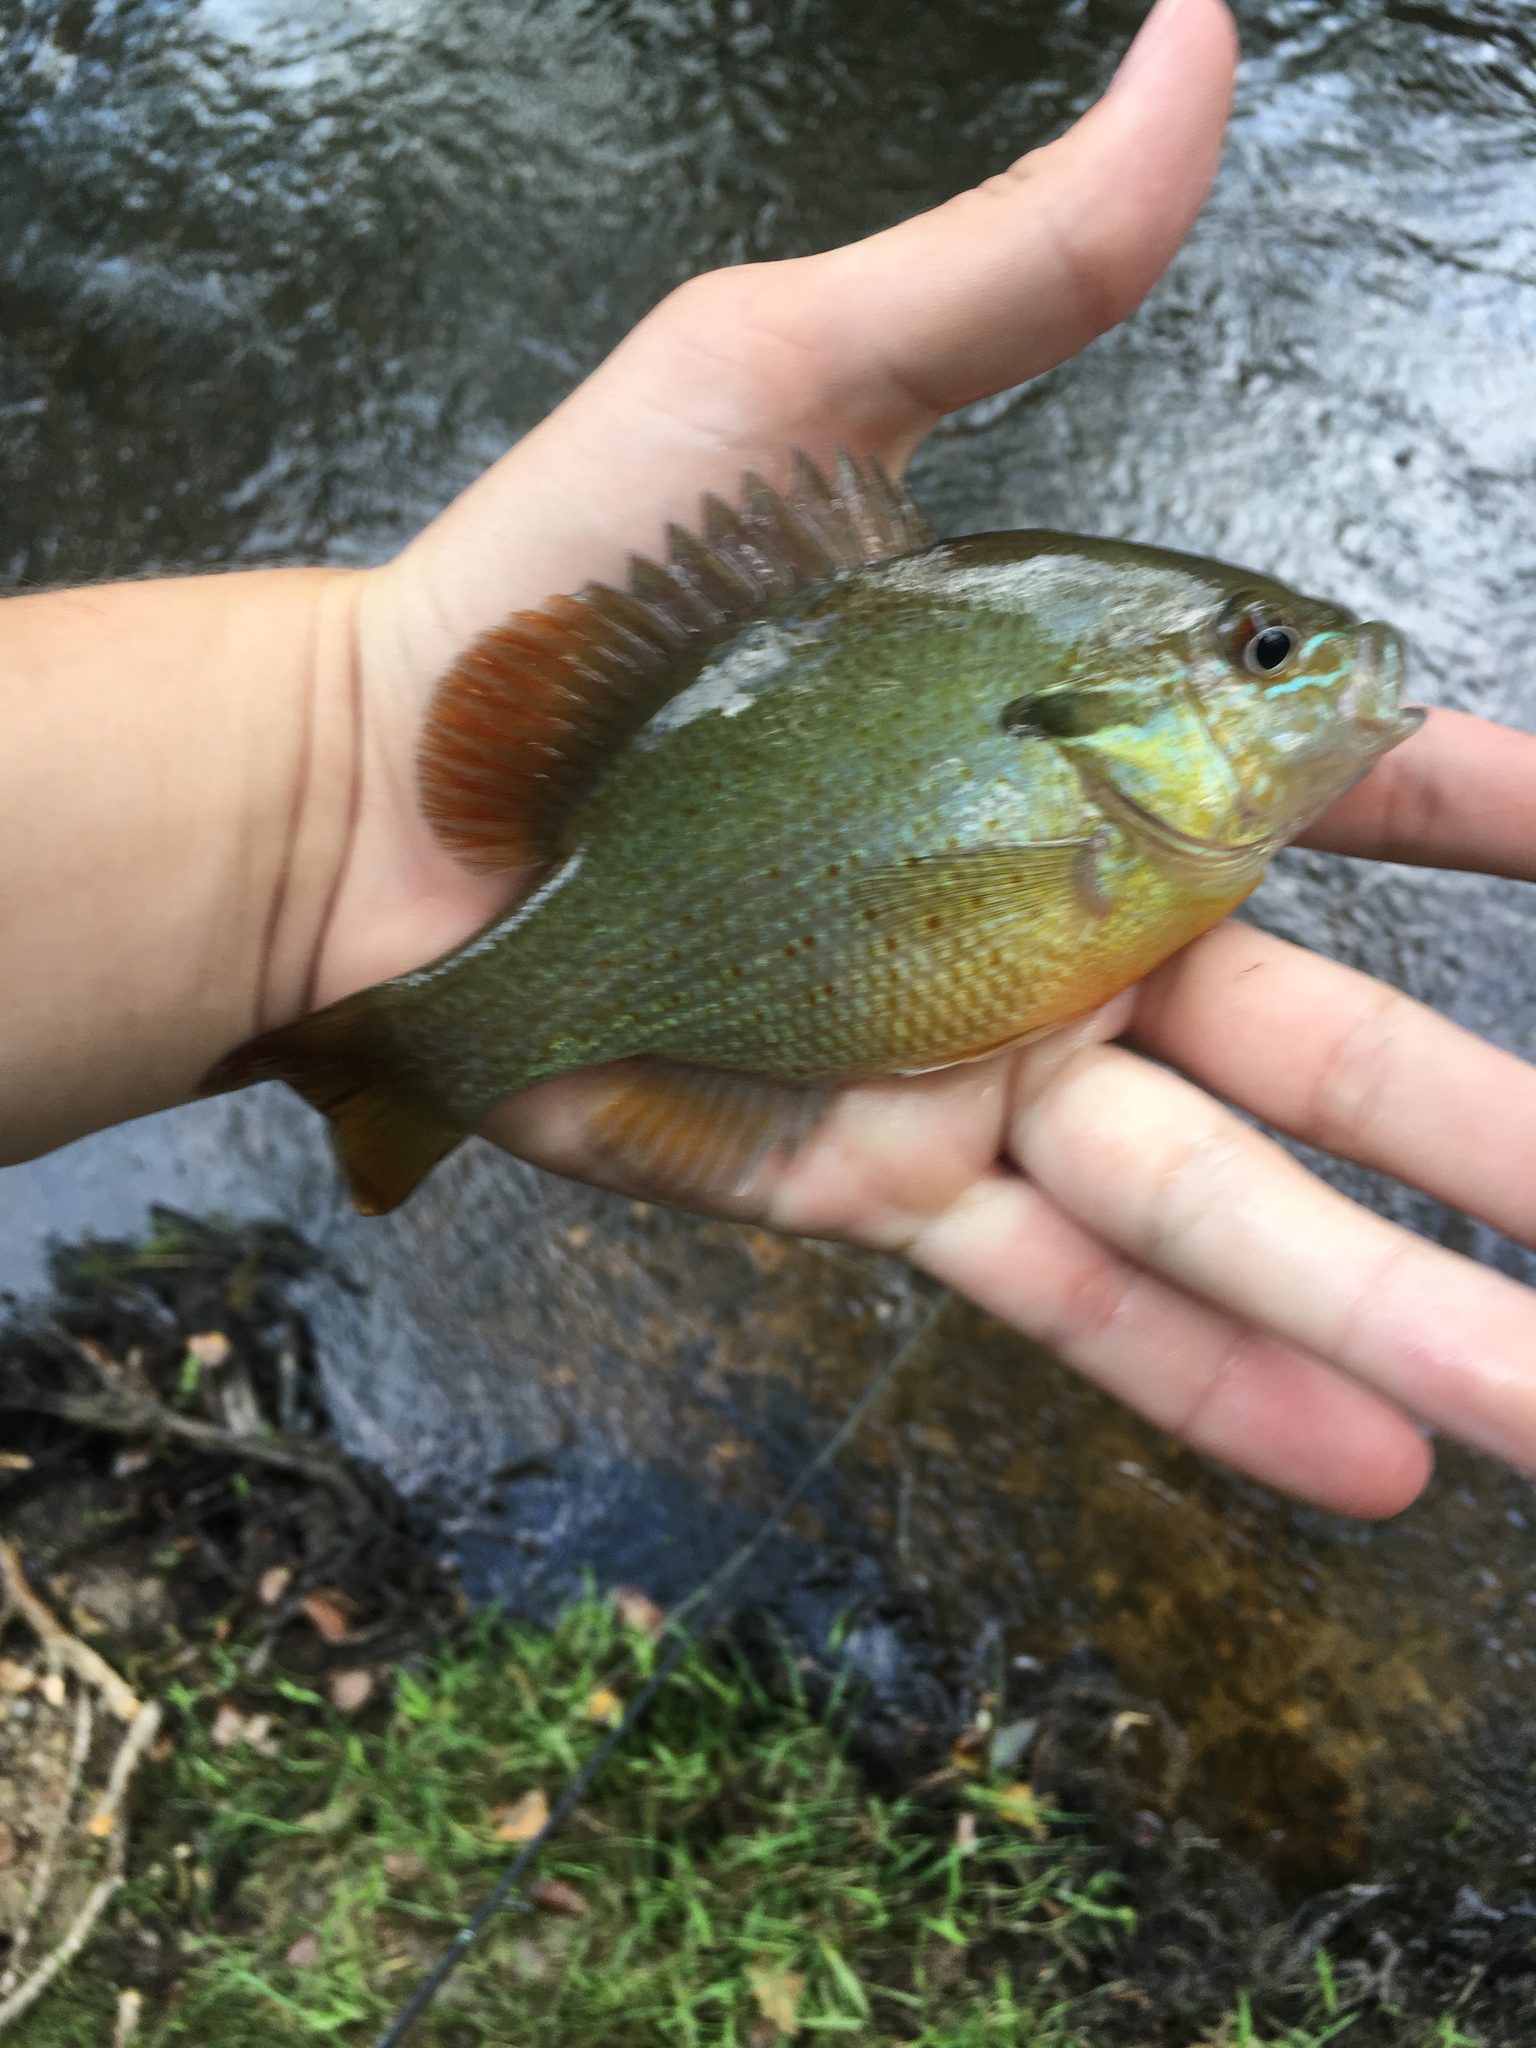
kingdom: Animalia
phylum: Chordata
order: Perciformes
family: Centrarchidae
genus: Lepomis
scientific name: Lepomis auritus
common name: Redbreast sunfish
